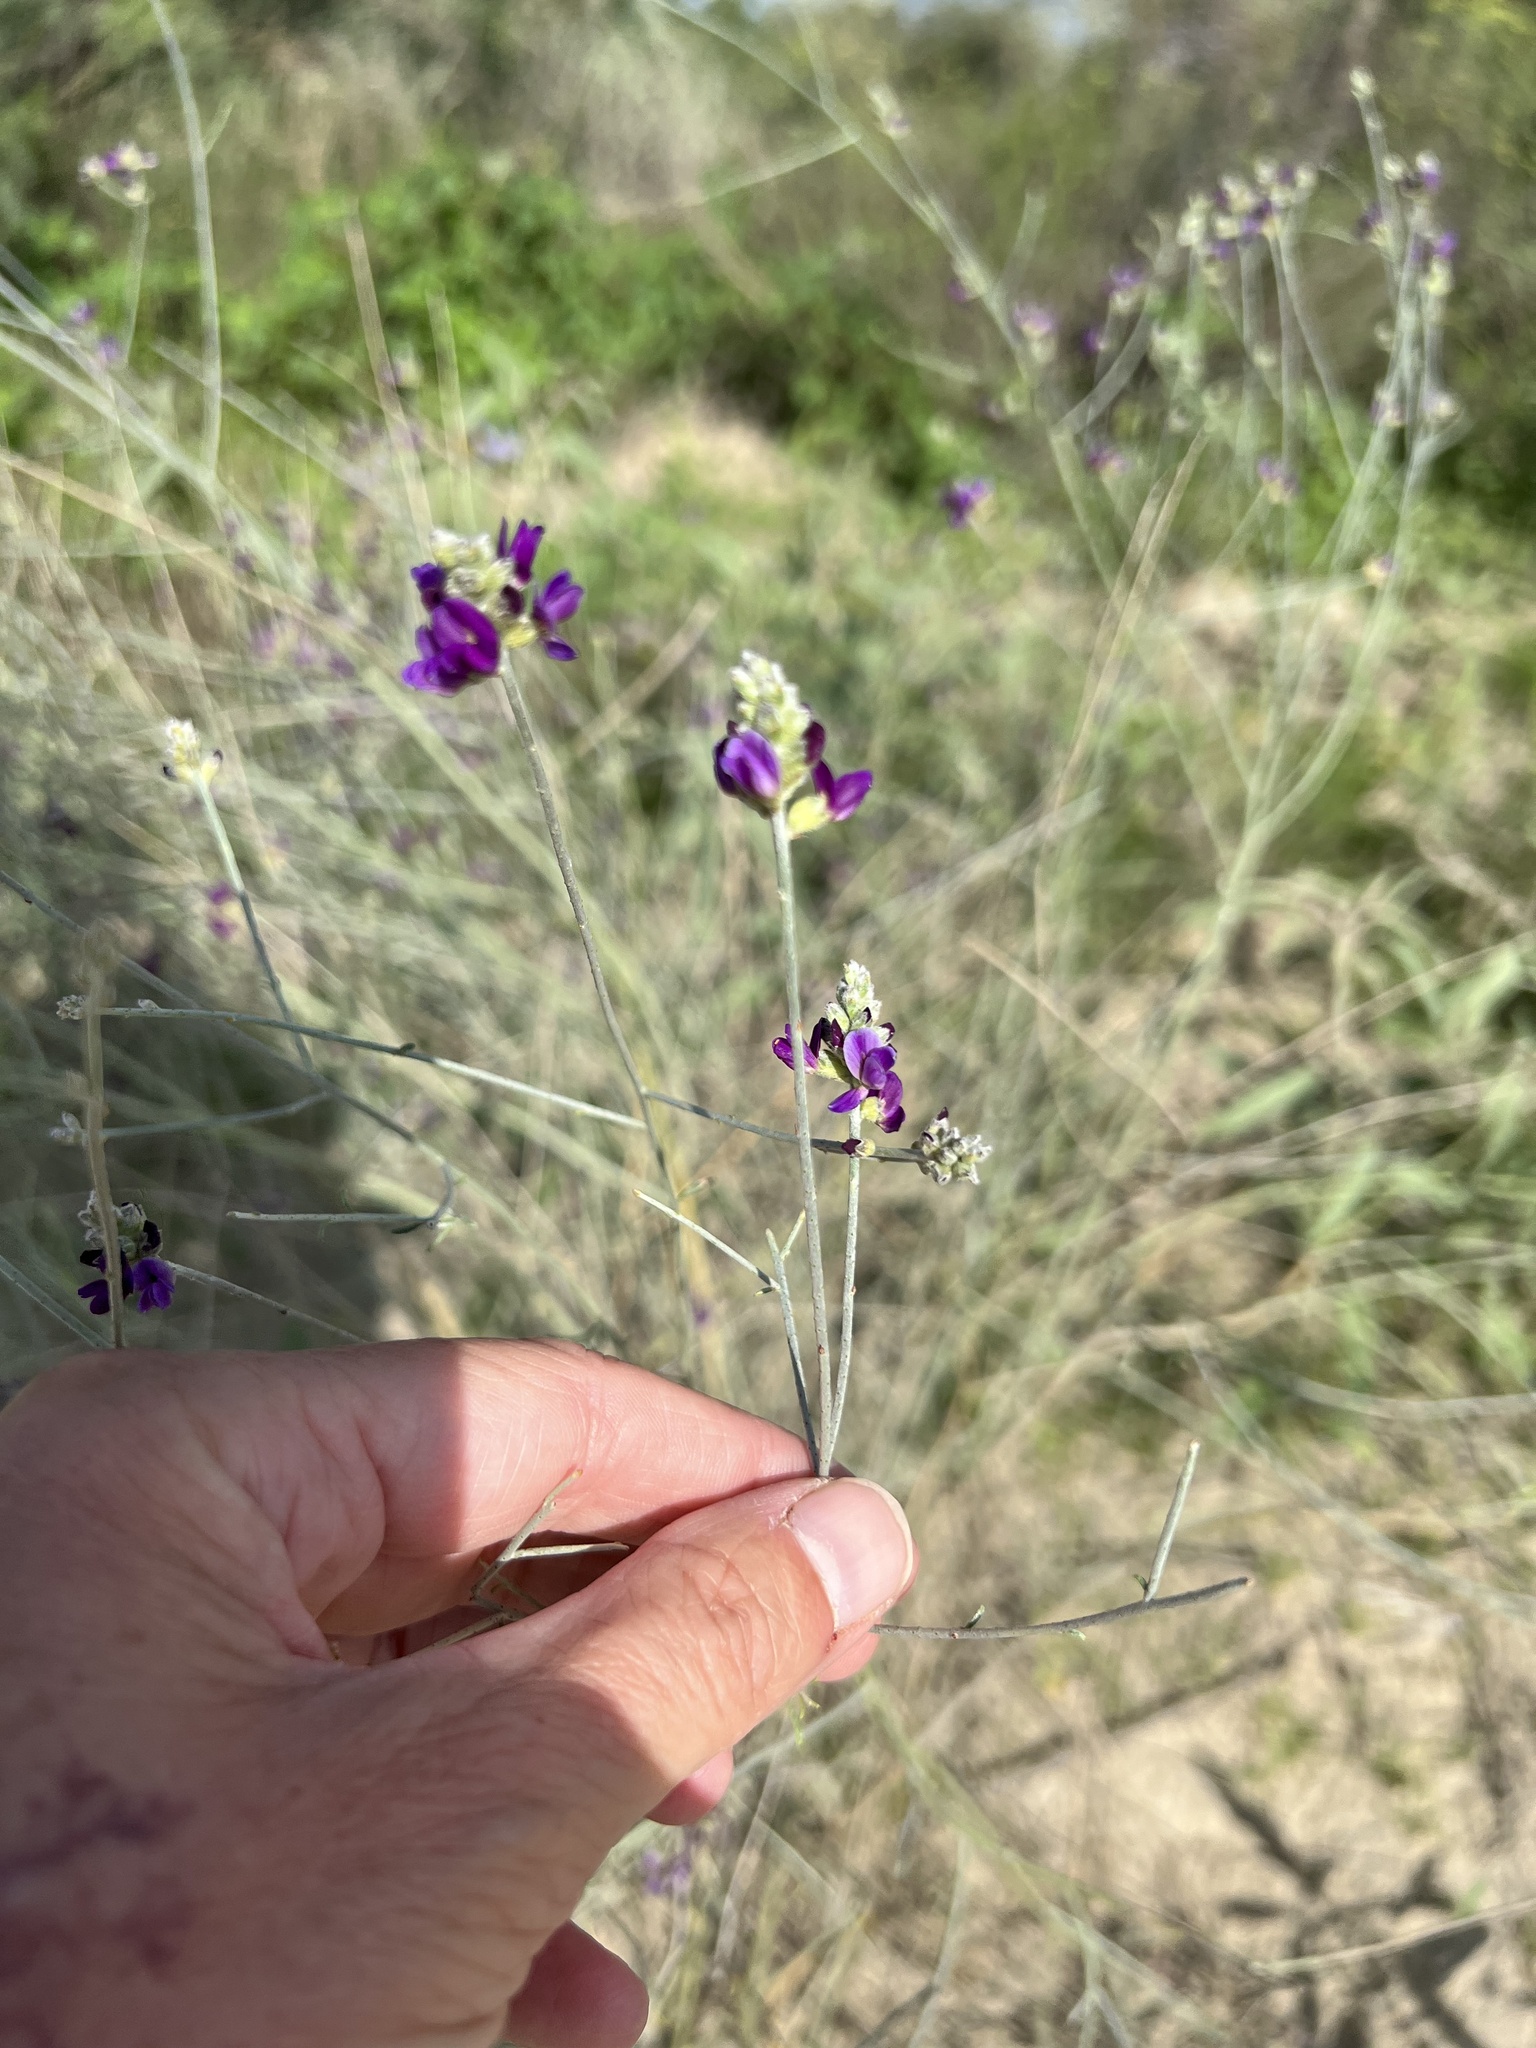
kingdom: Plantae
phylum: Tracheophyta
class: Magnoliopsida
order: Fabales
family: Fabaceae
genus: Psorothamnus
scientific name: Psorothamnus scoparius
